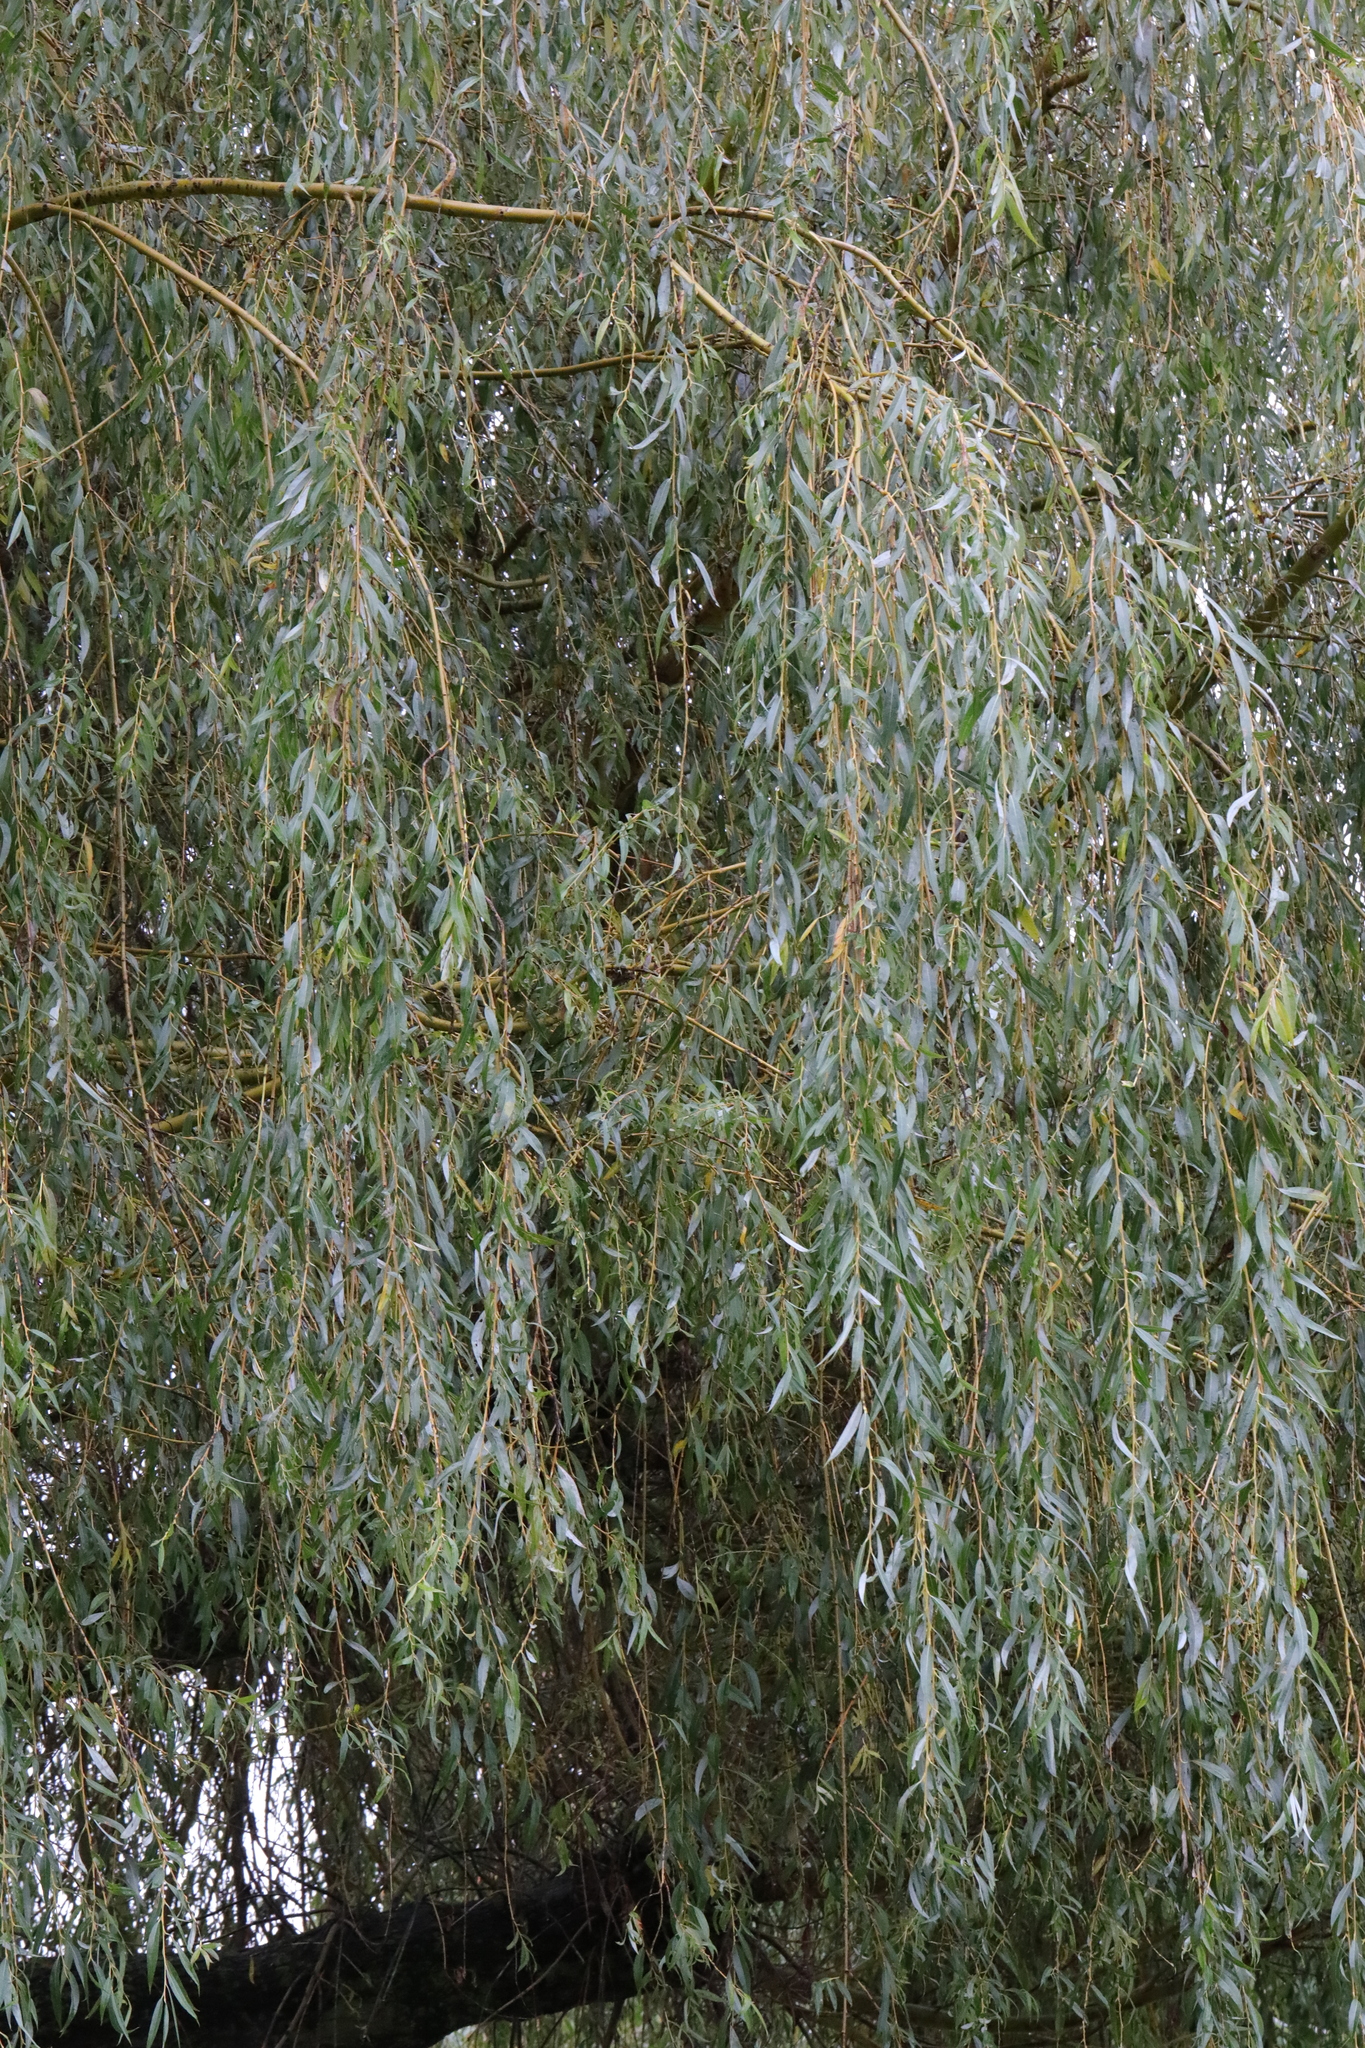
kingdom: Plantae
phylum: Tracheophyta
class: Magnoliopsida
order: Malpighiales
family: Salicaceae
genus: Salix
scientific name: Salix pendulina
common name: Wisconsin weeping willow
